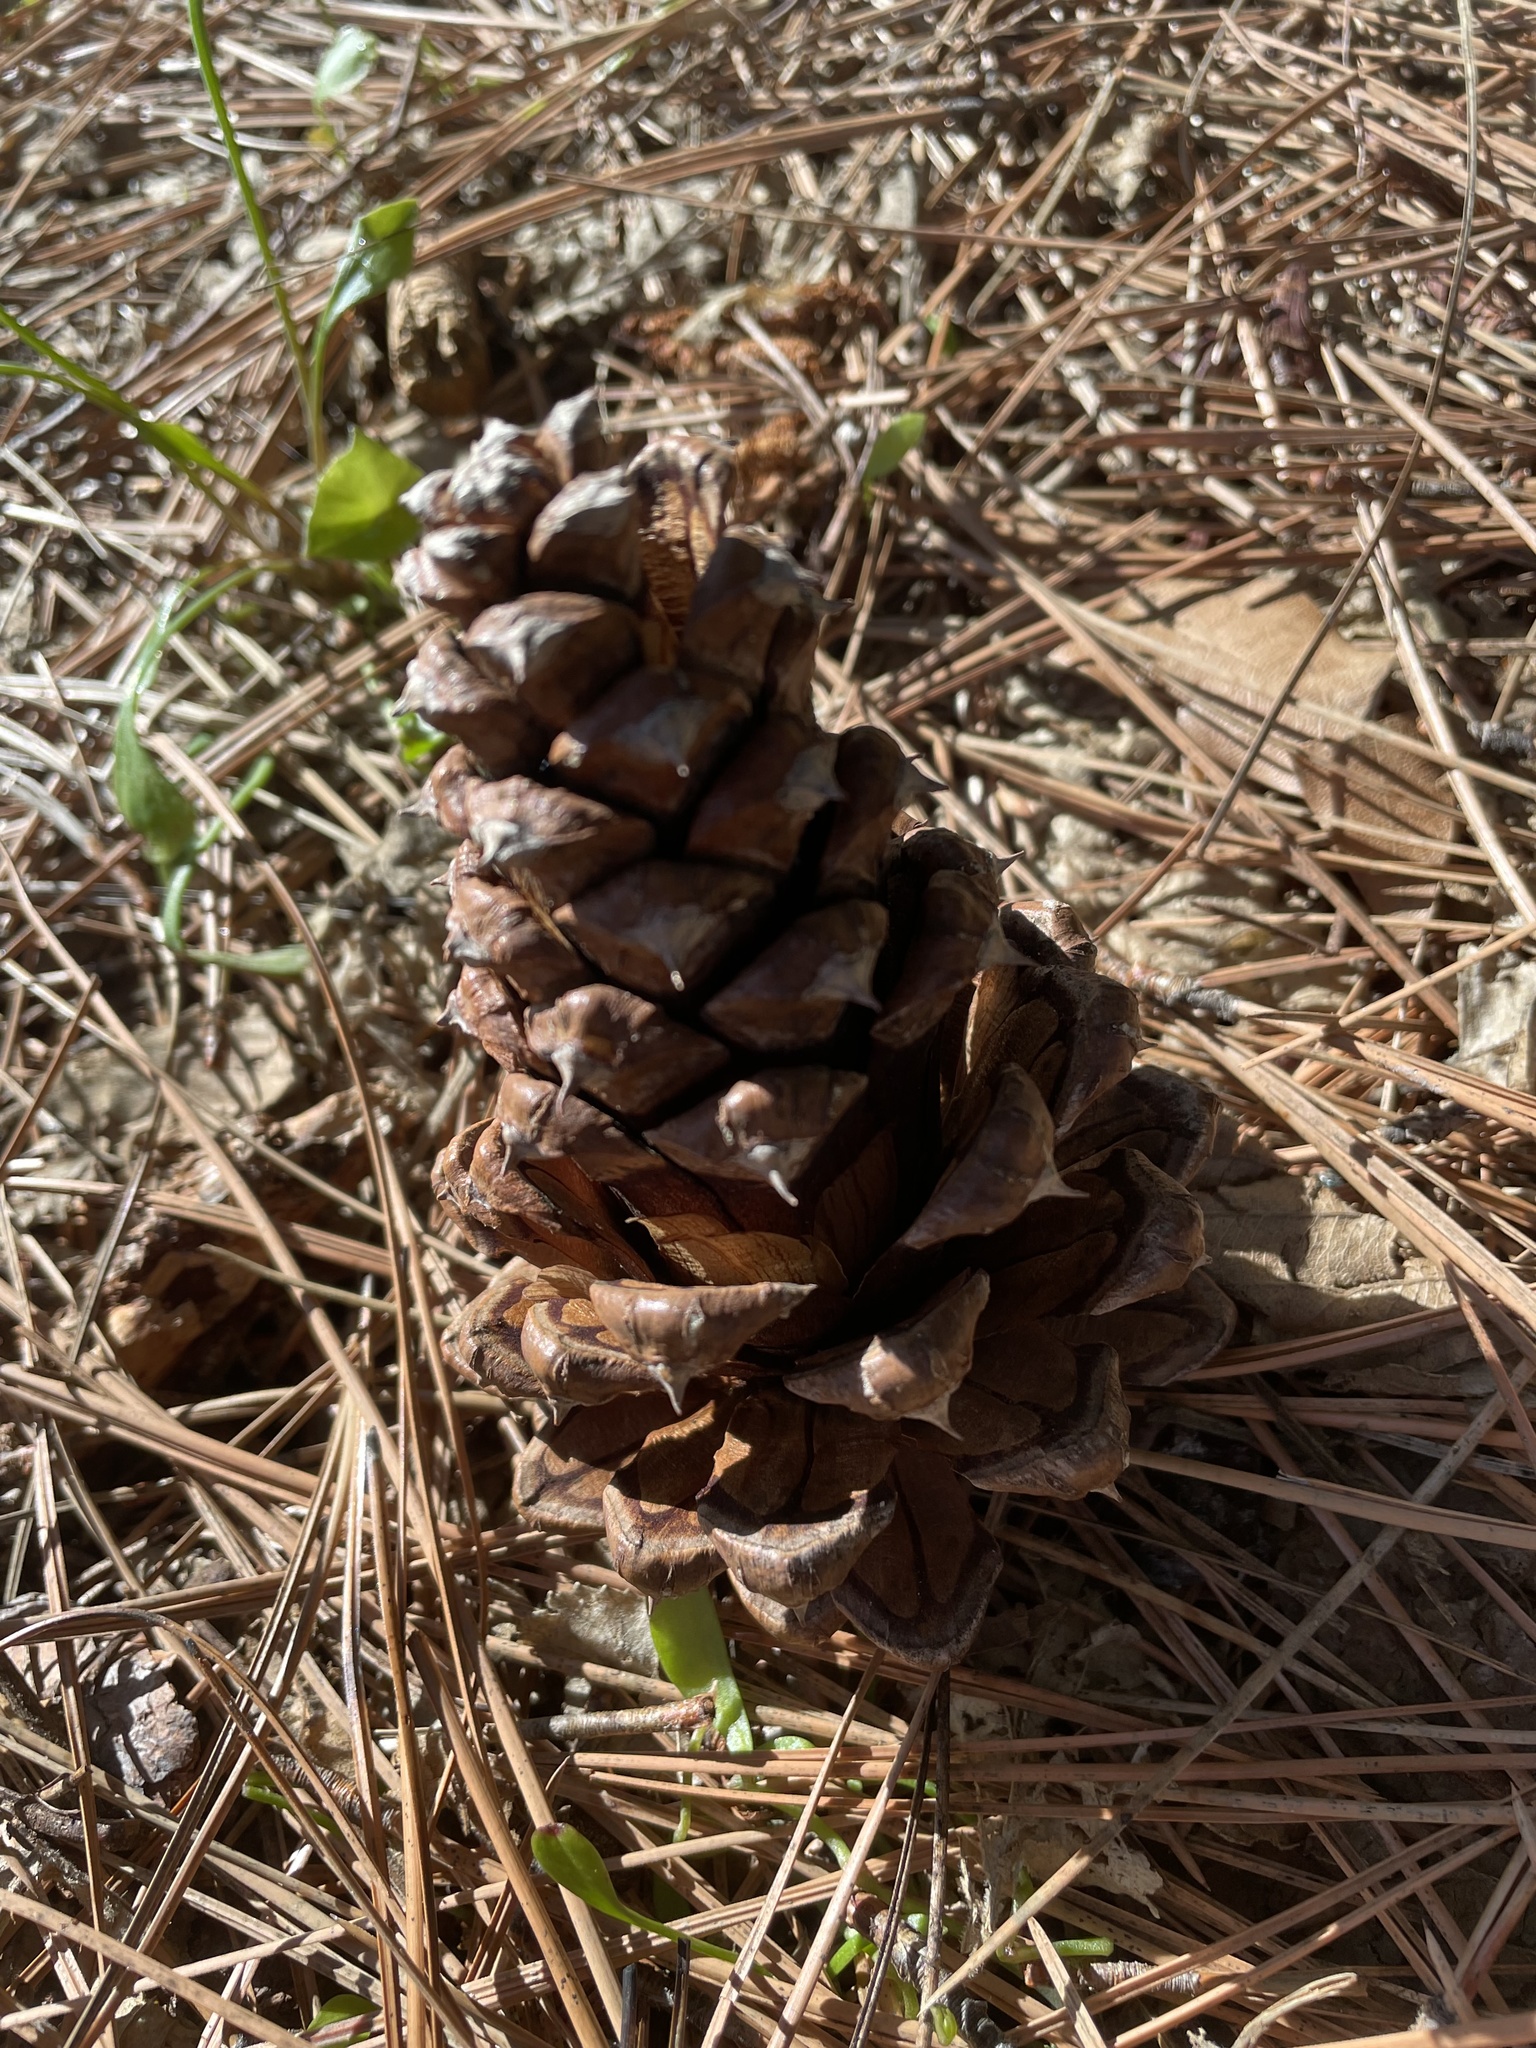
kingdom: Plantae
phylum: Tracheophyta
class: Pinopsida
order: Pinales
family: Pinaceae
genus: Pinus
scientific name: Pinus ponderosa
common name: Western yellow-pine
